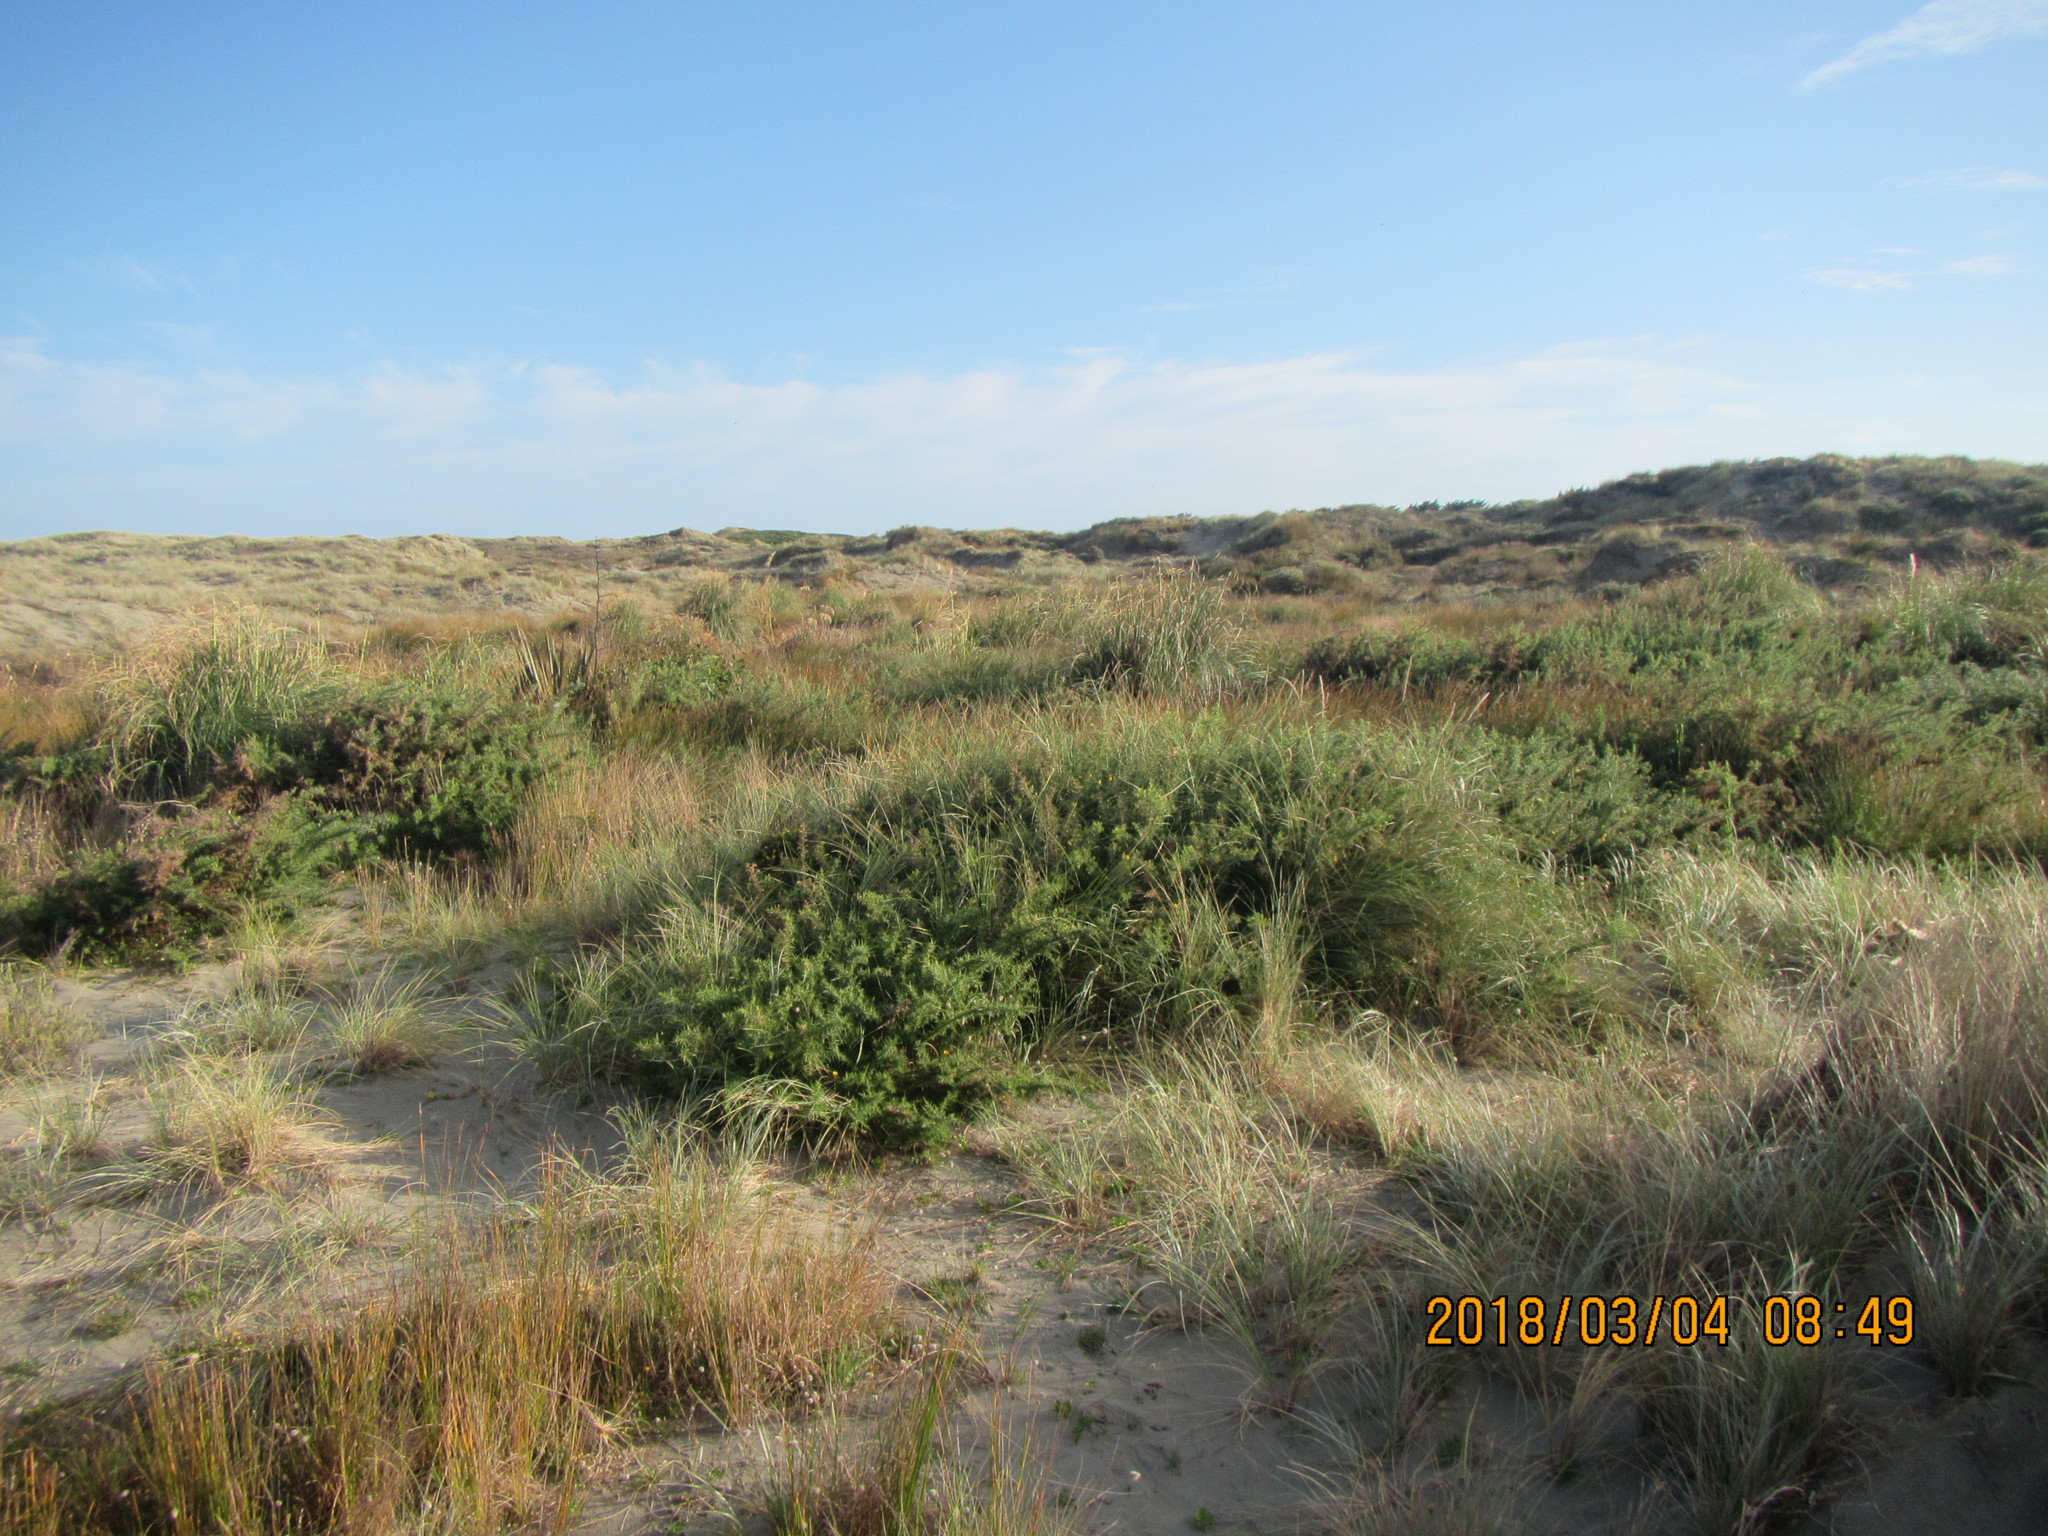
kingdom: Plantae
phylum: Tracheophyta
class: Magnoliopsida
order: Fabales
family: Fabaceae
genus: Ulex
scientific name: Ulex europaeus
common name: Common gorse
